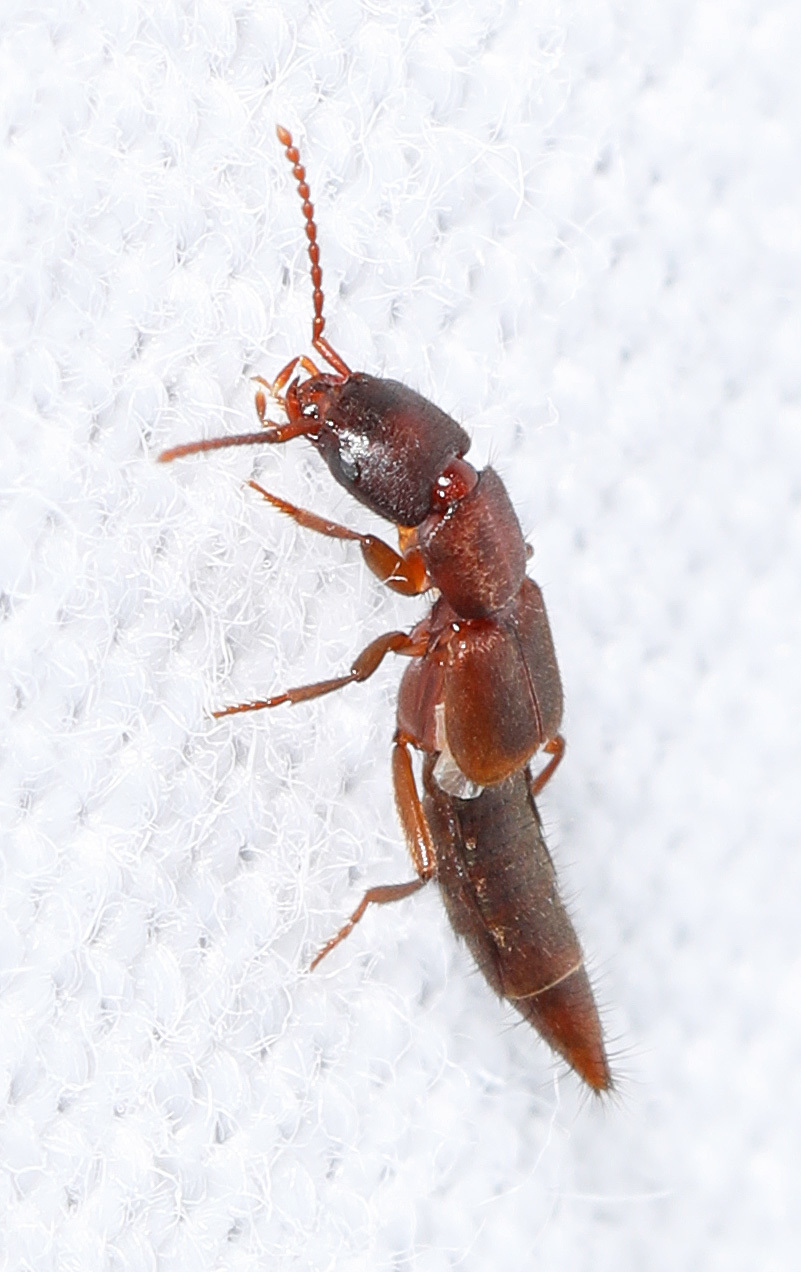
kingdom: Animalia
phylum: Arthropoda
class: Insecta
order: Coleoptera
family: Staphylinidae
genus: Achenomorphus
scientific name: Achenomorphus corticinus
